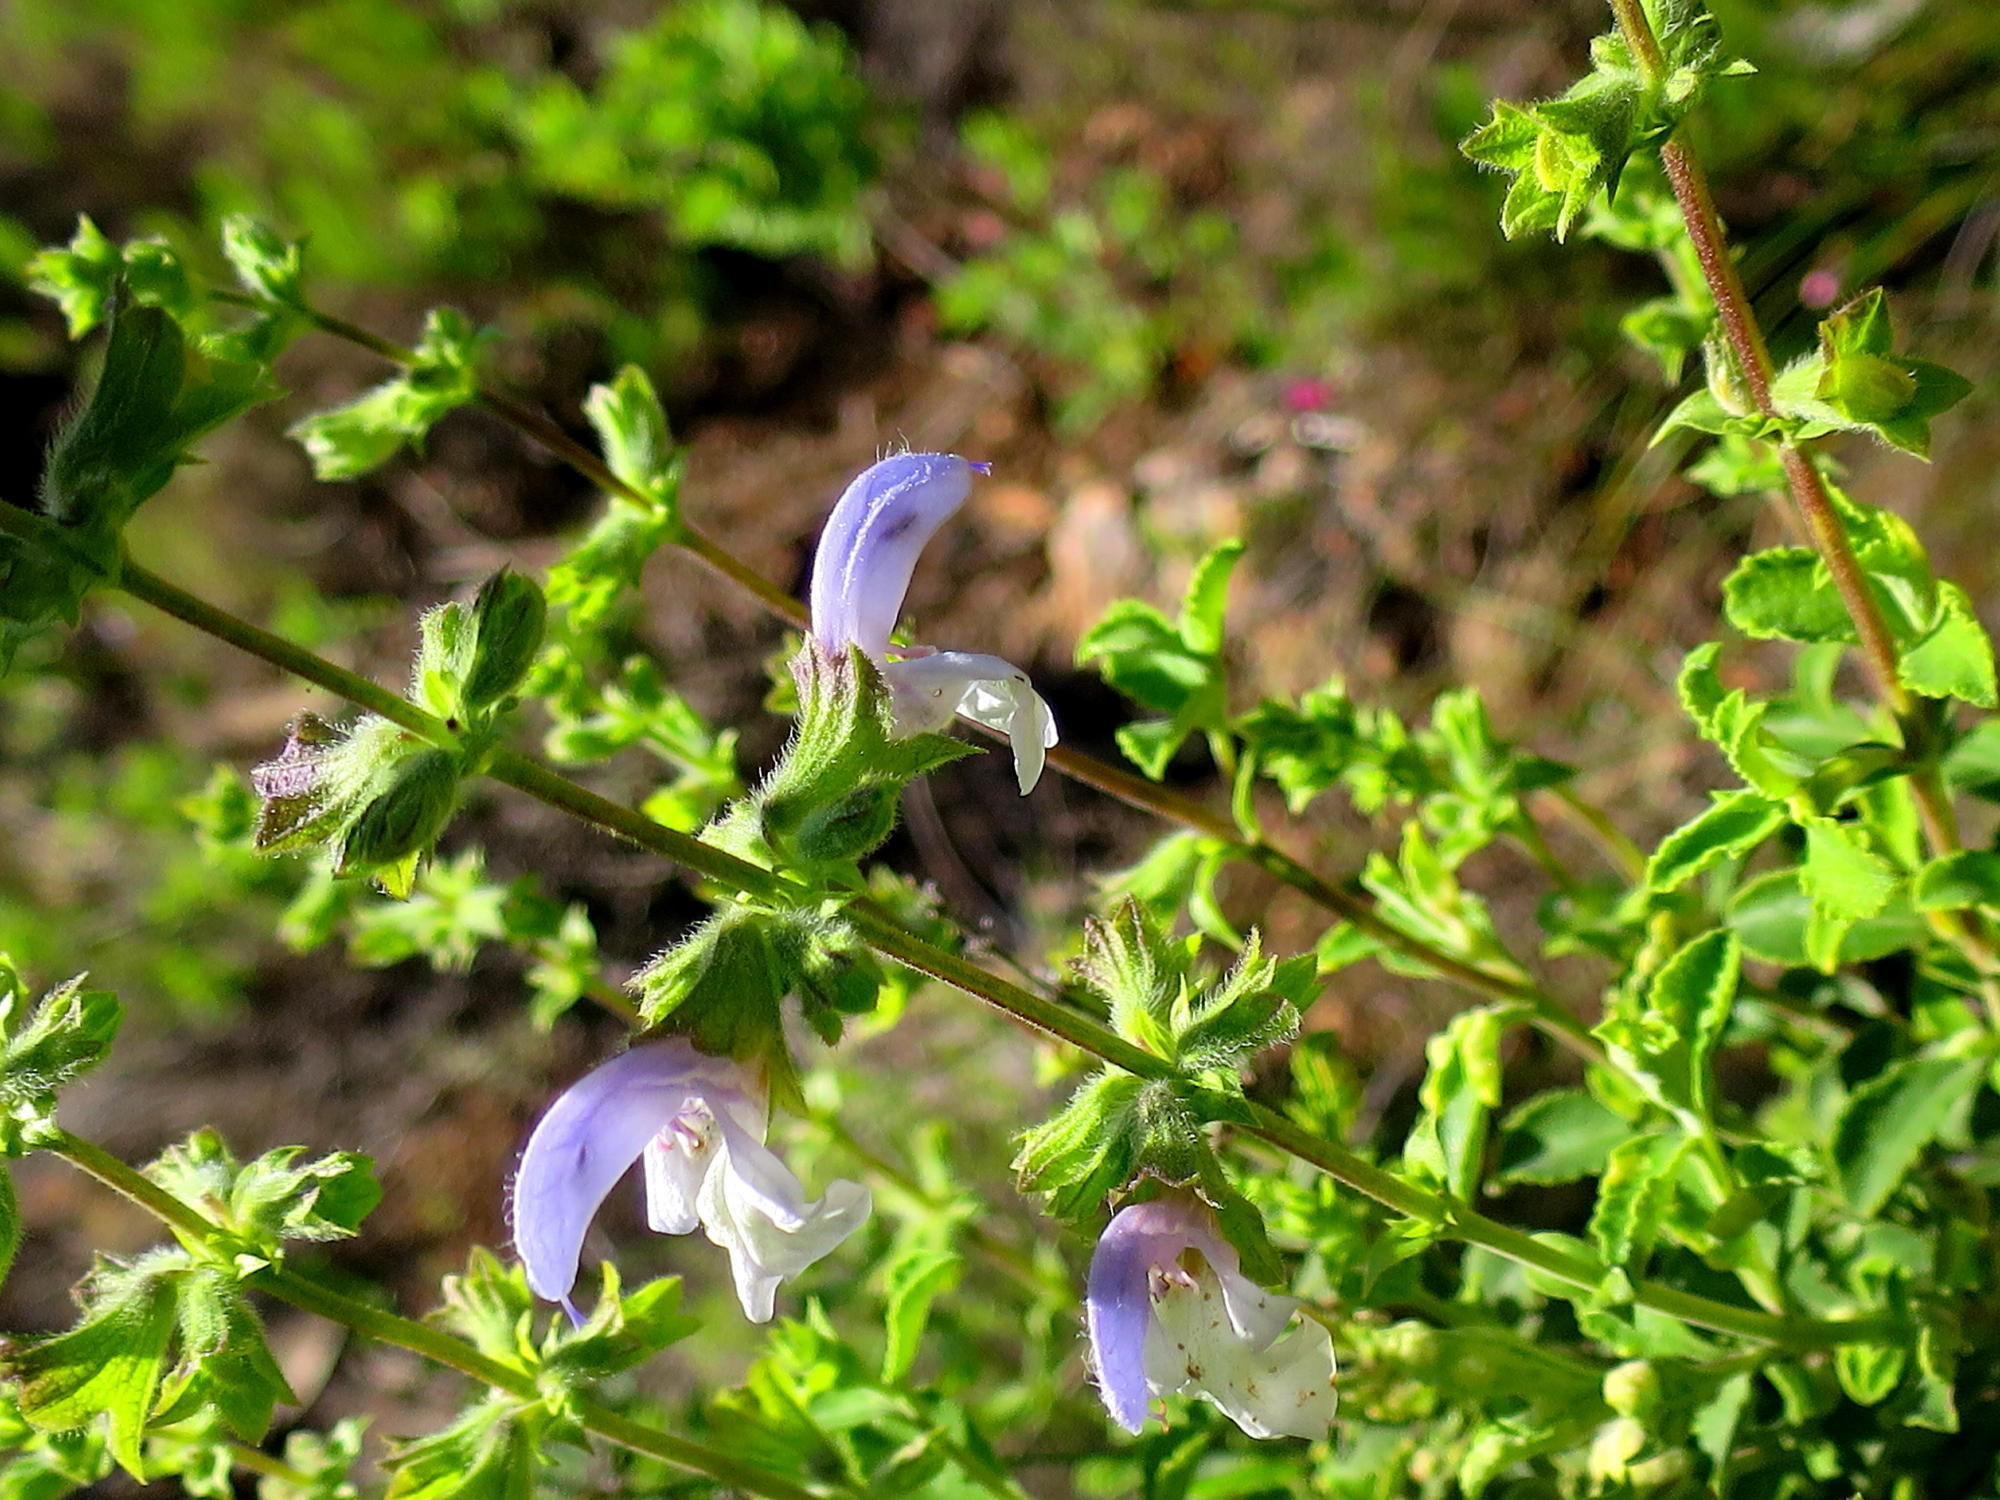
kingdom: Plantae
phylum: Tracheophyta
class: Magnoliopsida
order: Lamiales
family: Lamiaceae
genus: Salvia
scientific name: Salvia chamelaeagnea
